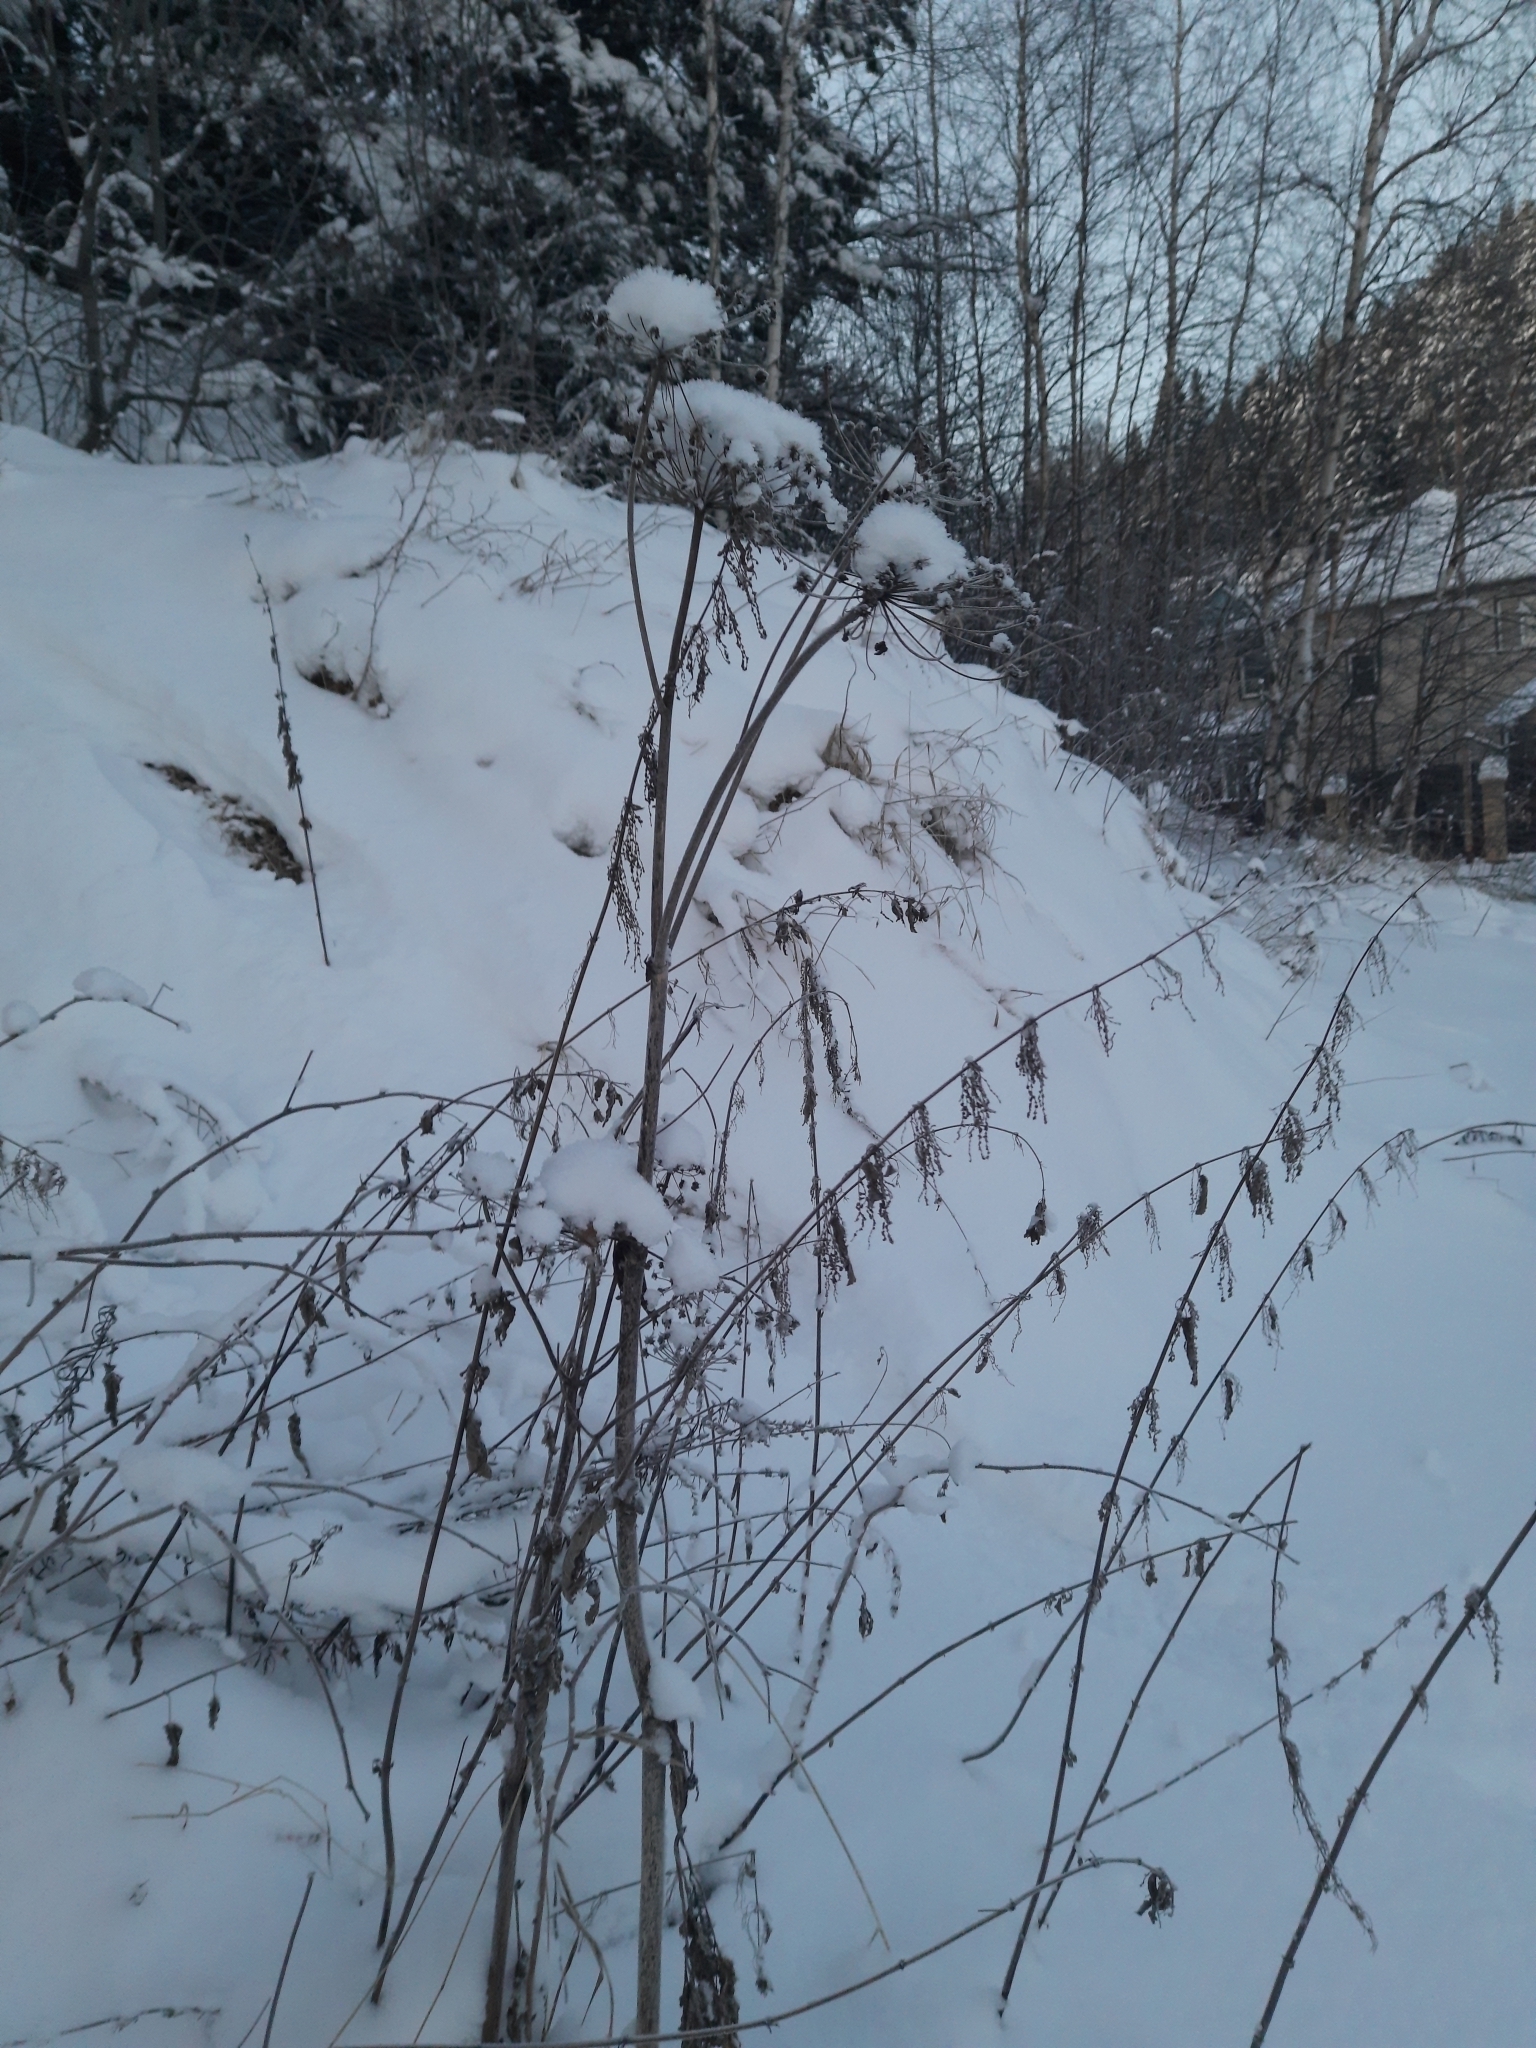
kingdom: Plantae
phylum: Tracheophyta
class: Magnoliopsida
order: Apiales
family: Apiaceae
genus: Angelica
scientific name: Angelica sylvestris
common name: Wild angelica
